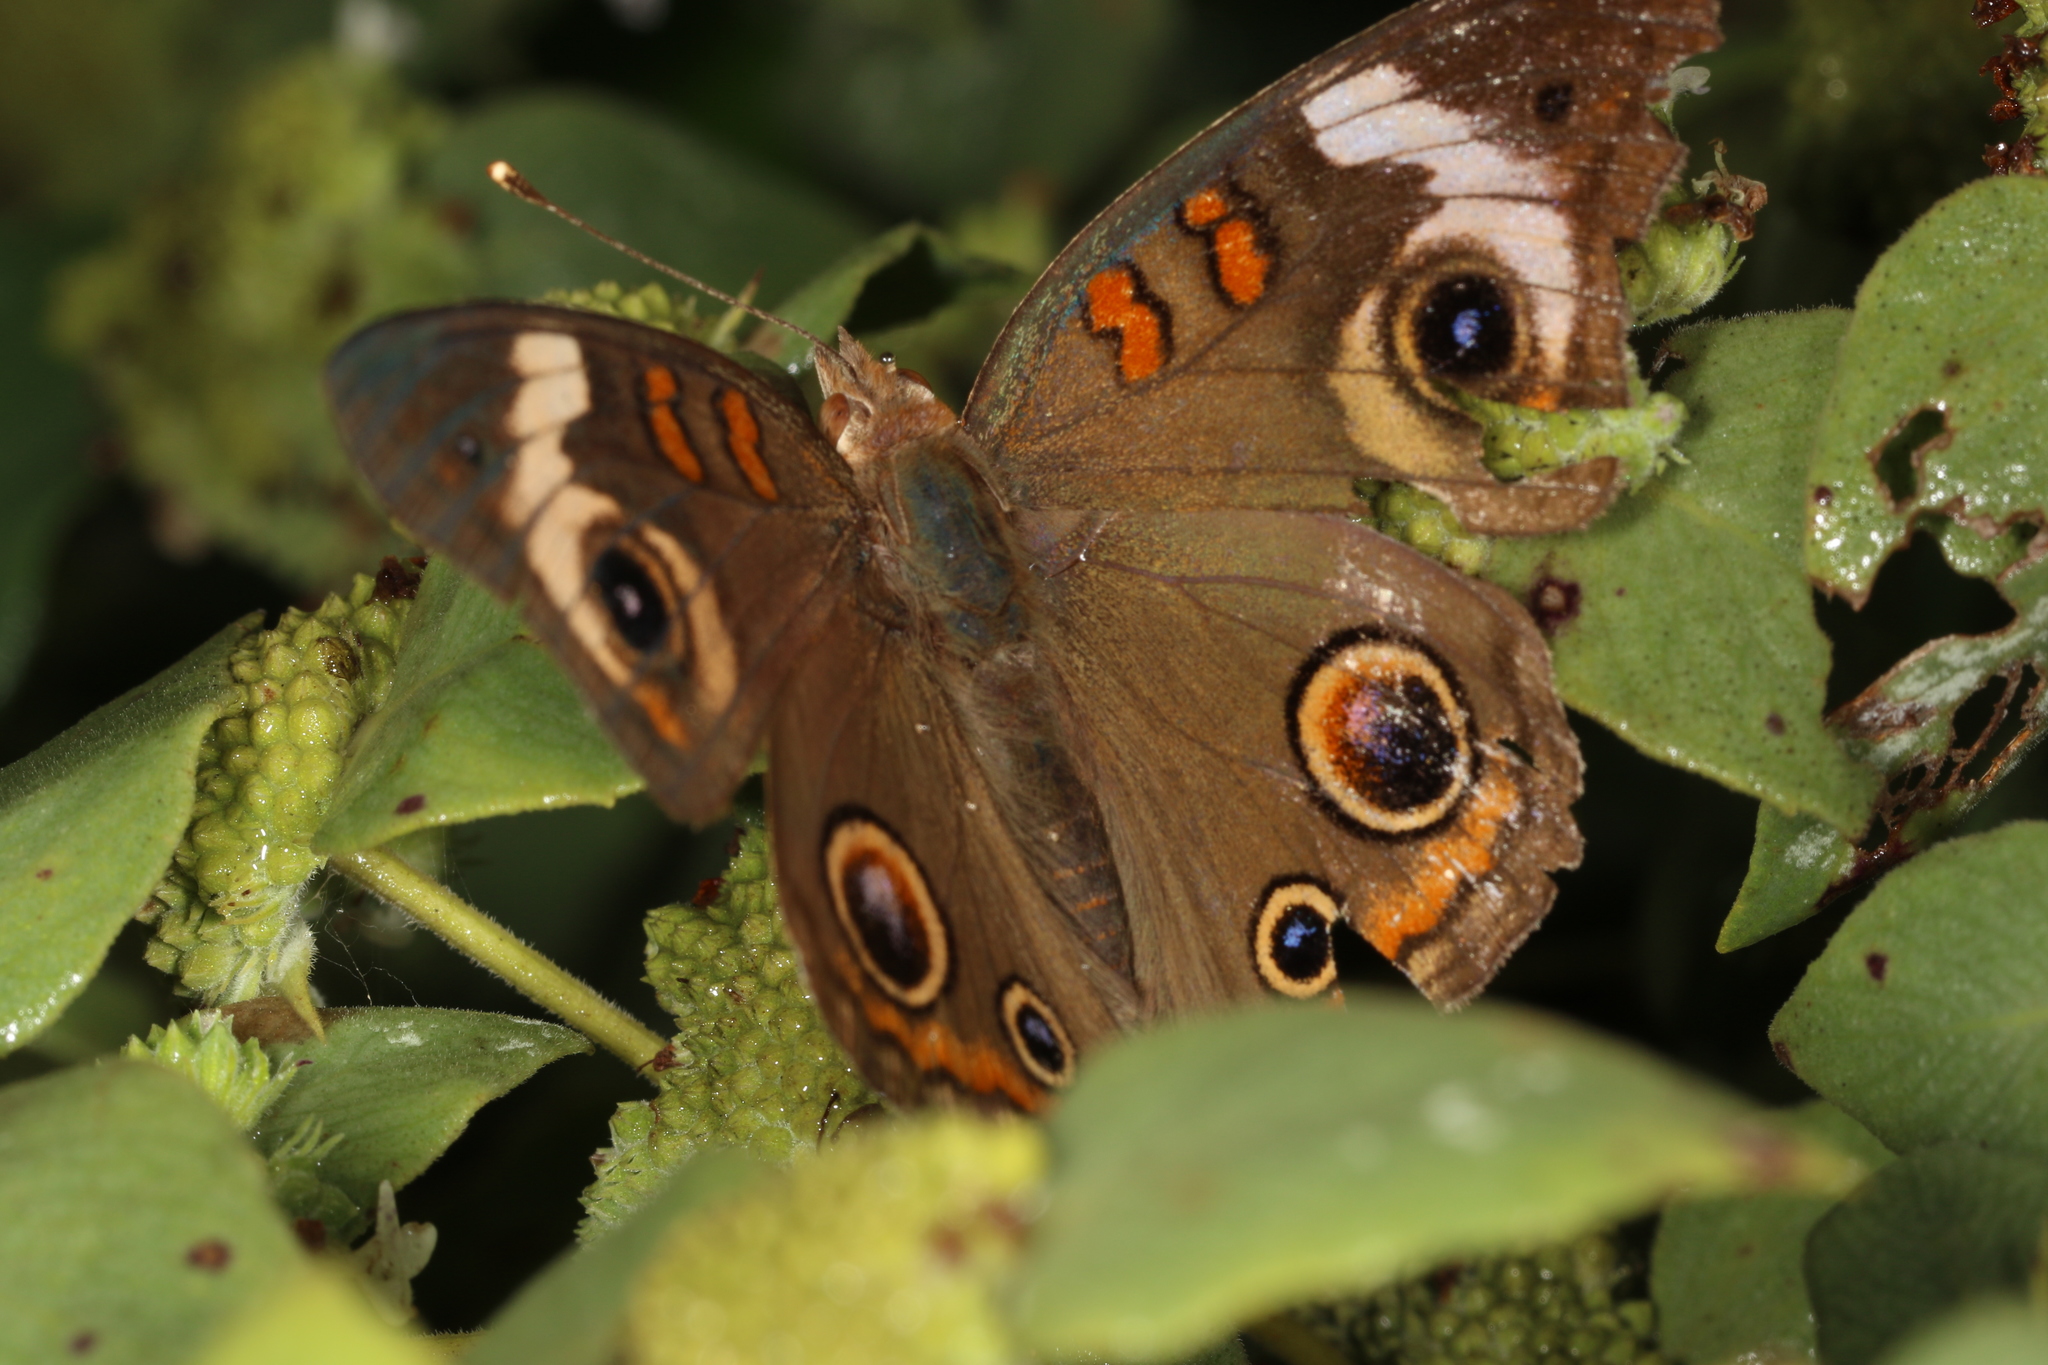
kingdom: Animalia
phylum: Arthropoda
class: Insecta
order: Lepidoptera
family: Nymphalidae
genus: Junonia
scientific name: Junonia coenia
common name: Common buckeye
